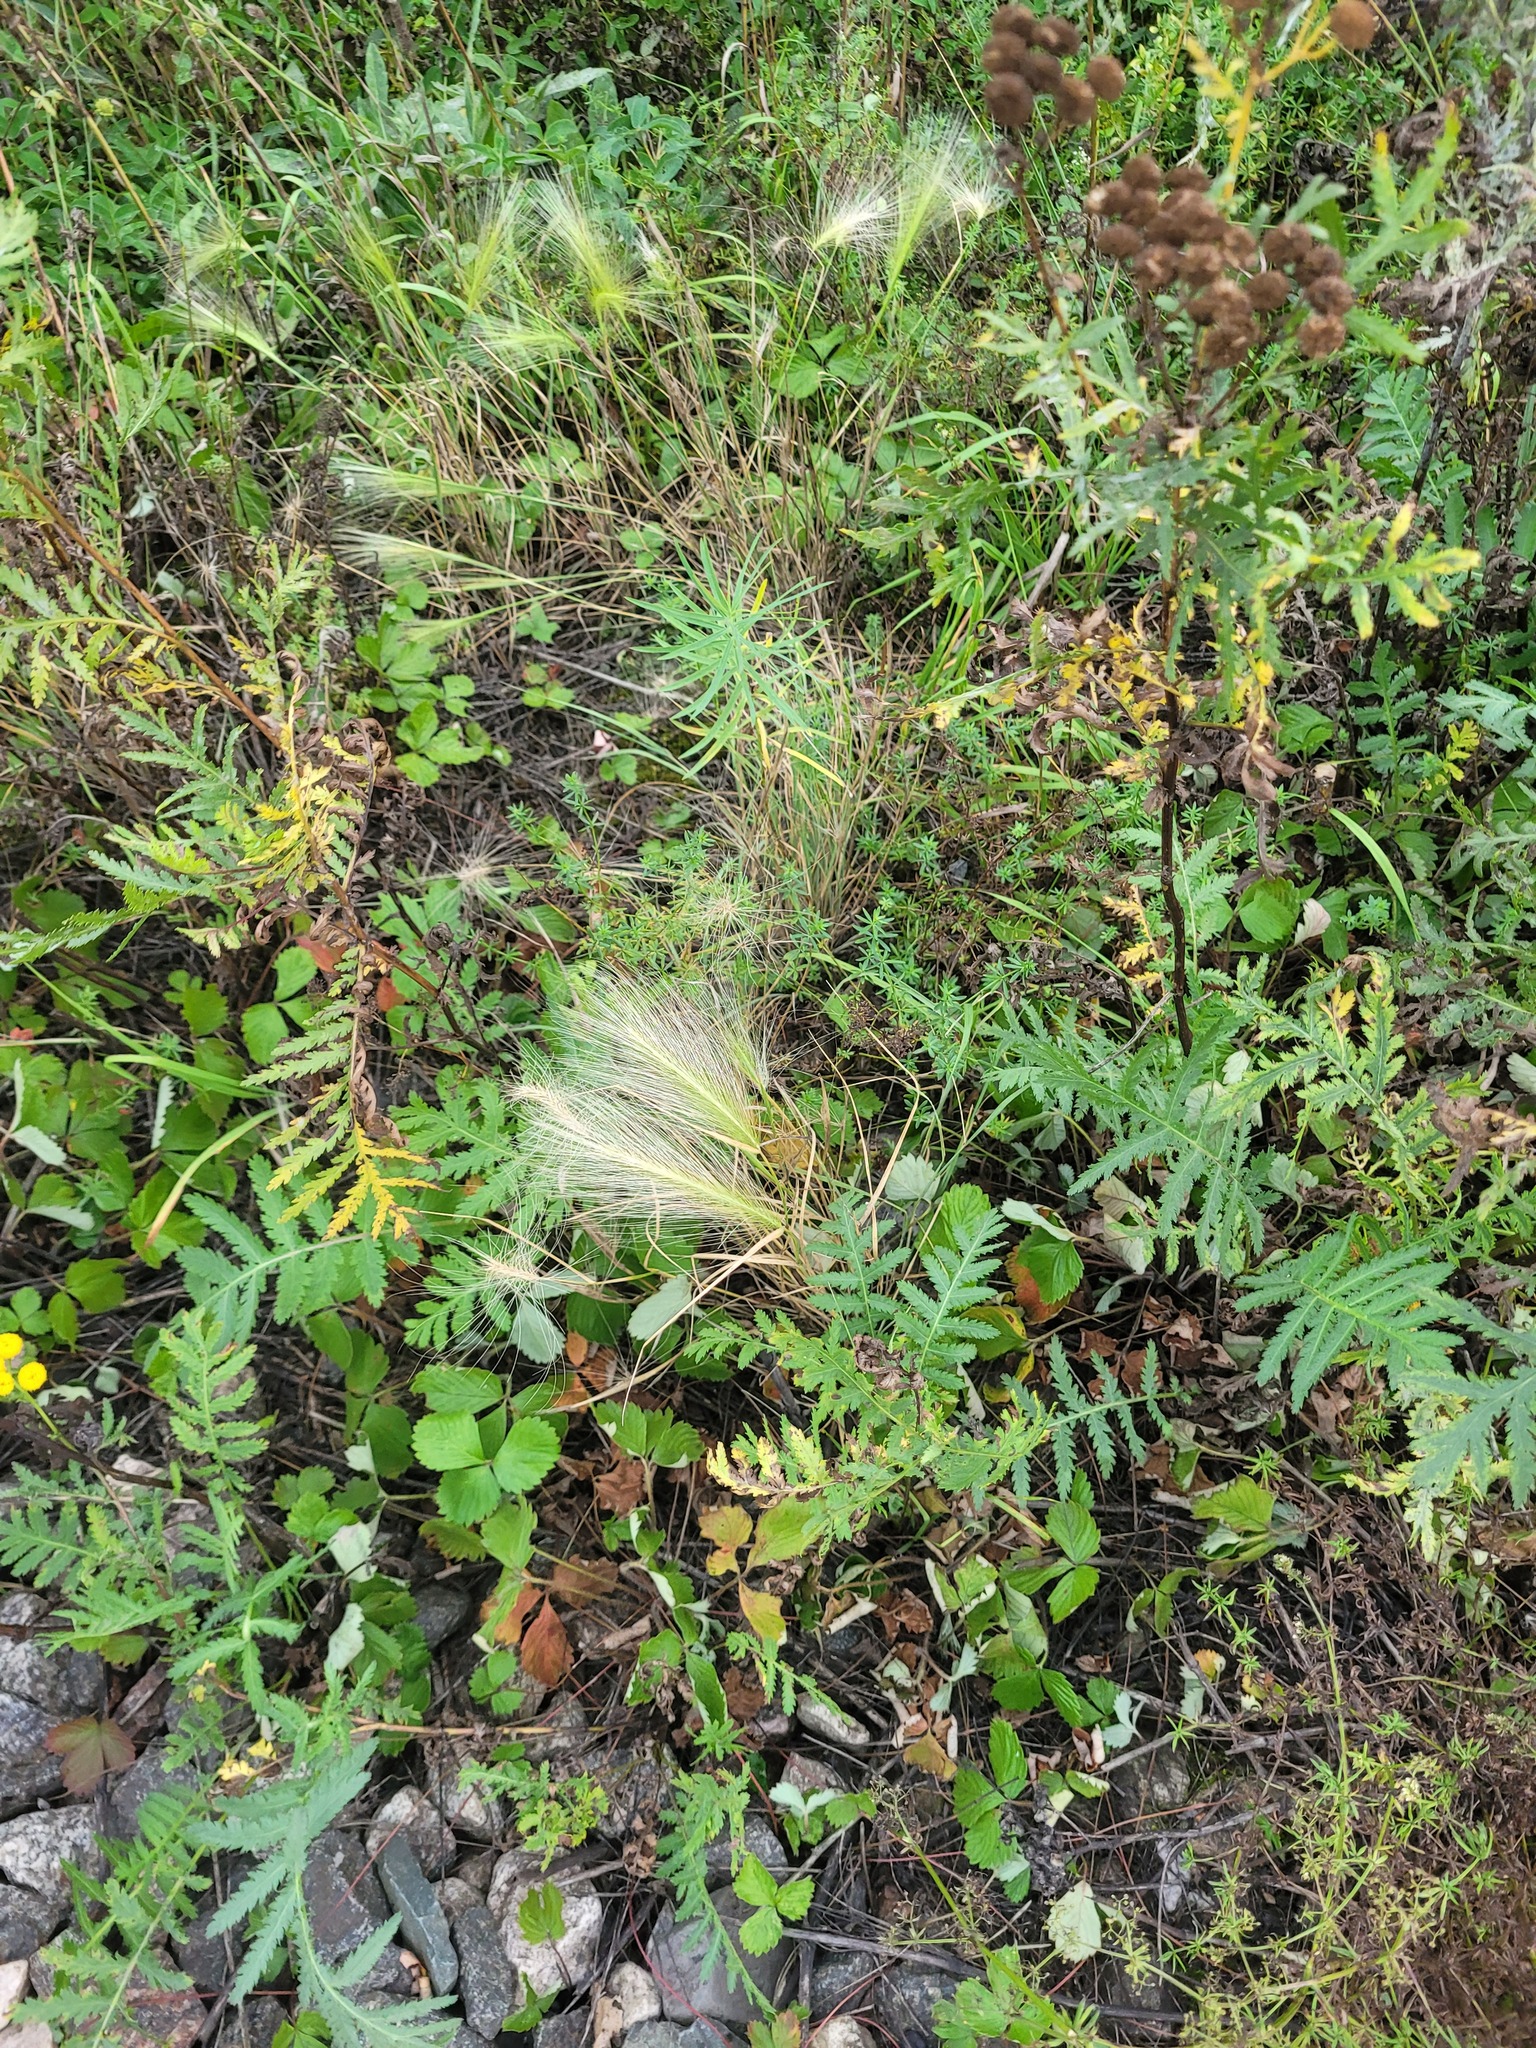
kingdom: Plantae
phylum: Tracheophyta
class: Liliopsida
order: Poales
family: Poaceae
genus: Hordeum
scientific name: Hordeum jubatum
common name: Foxtail barley
